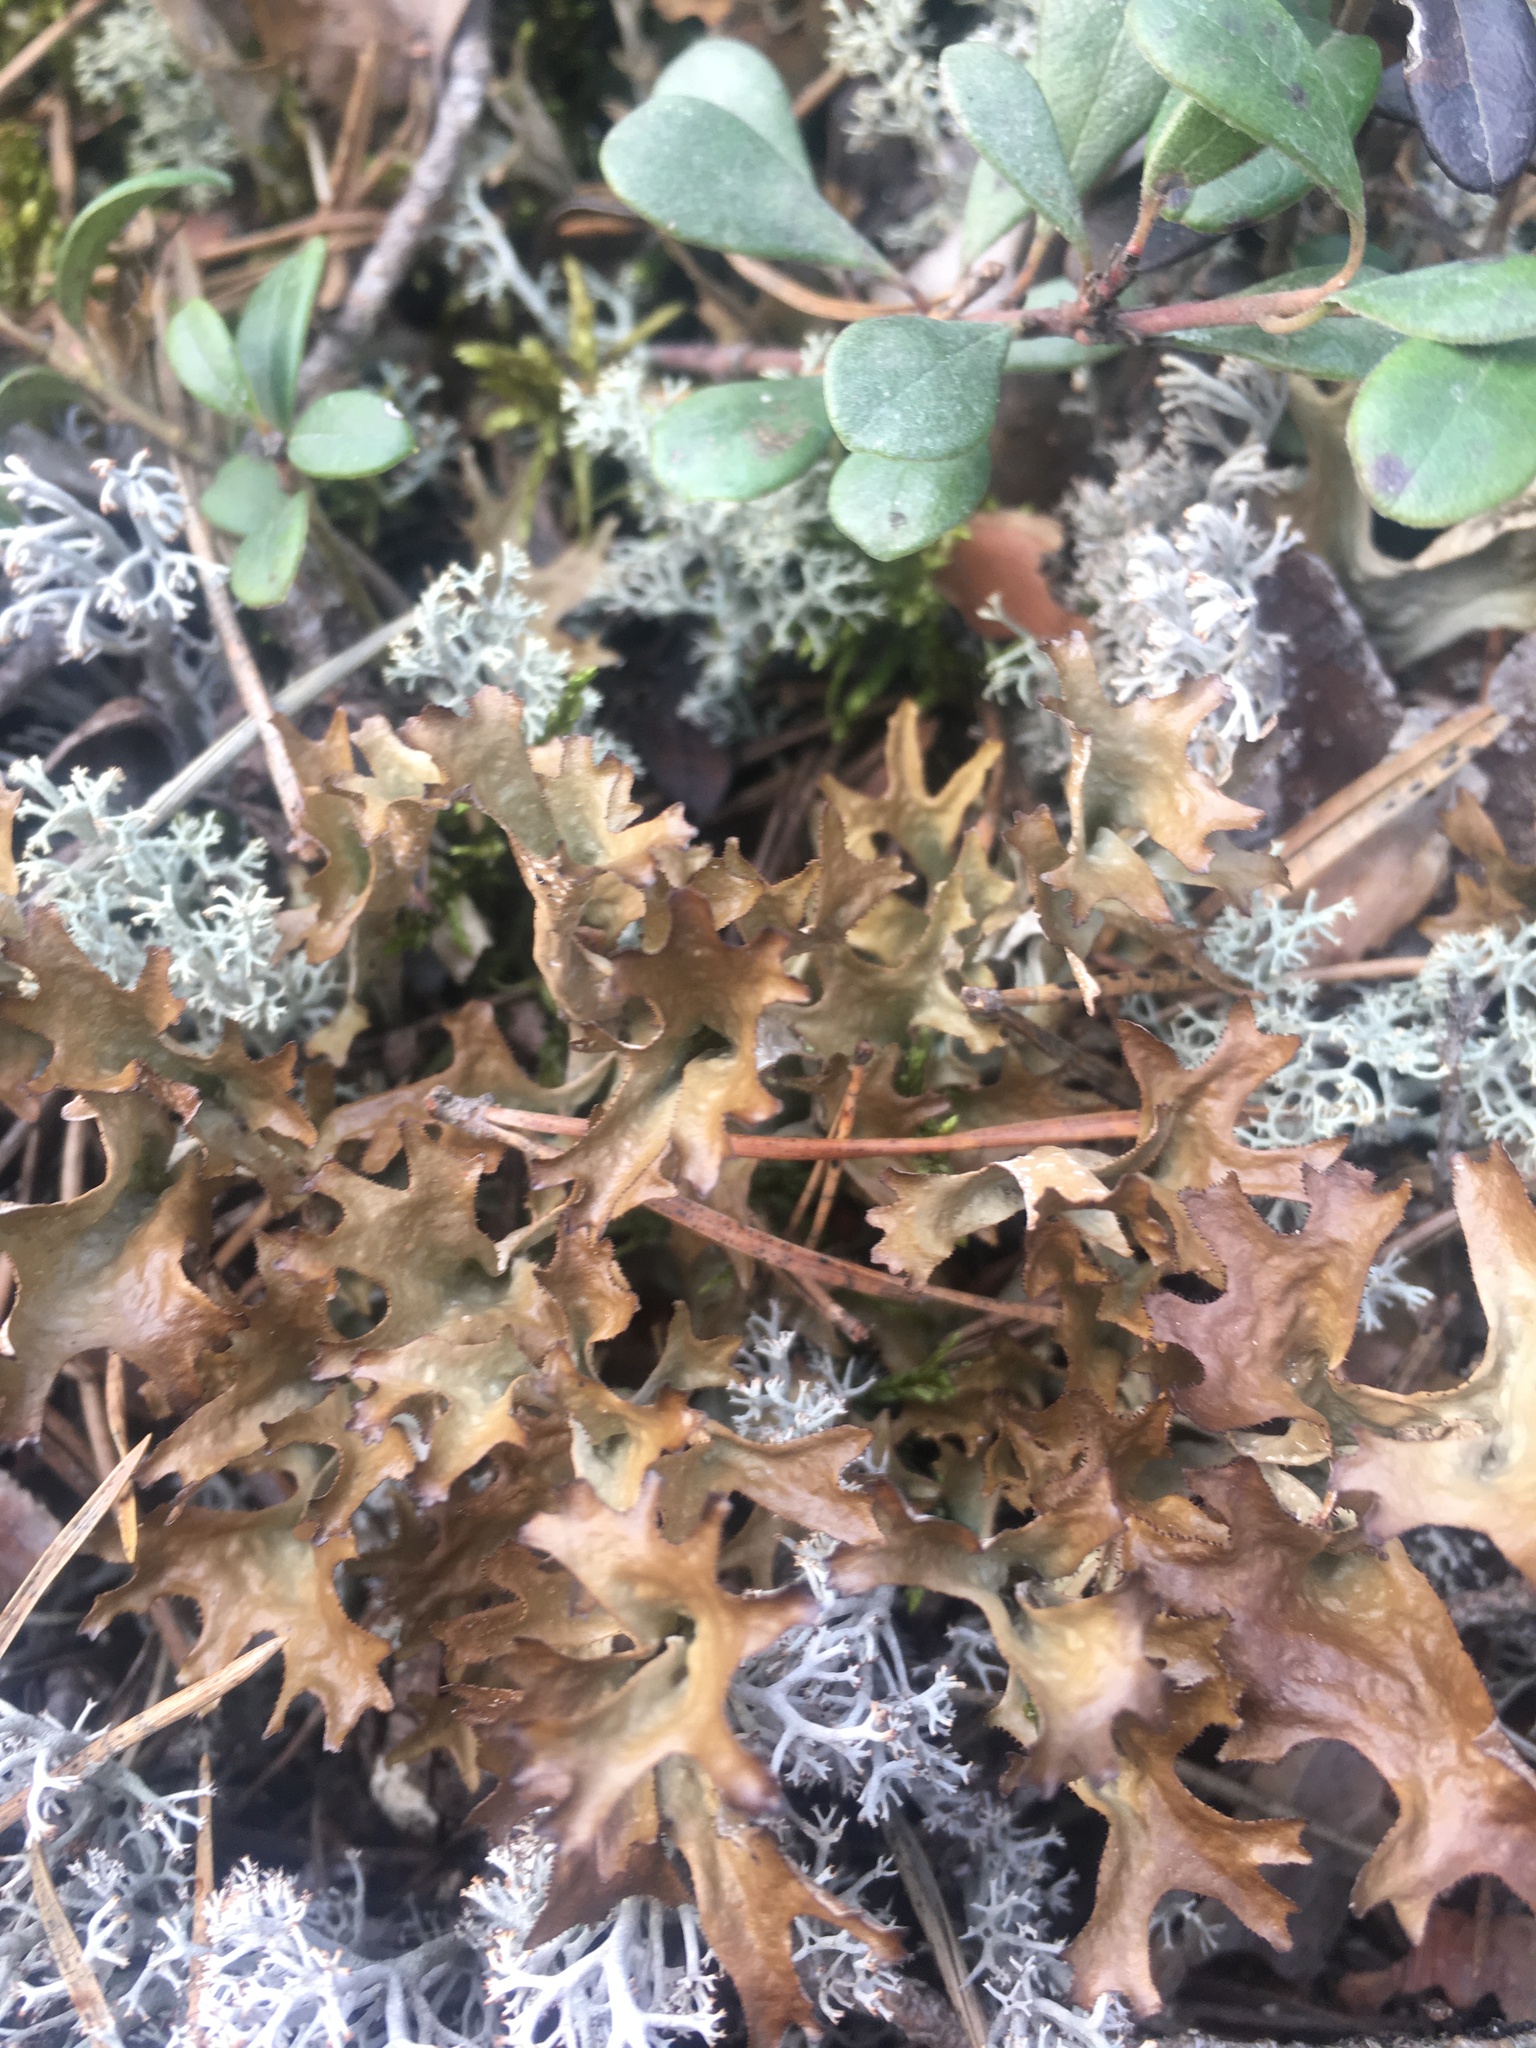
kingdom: Fungi
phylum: Ascomycota
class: Lecanoromycetes
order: Lecanorales
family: Parmeliaceae
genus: Cetraria
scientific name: Cetraria islandica
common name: Iceland lichen
